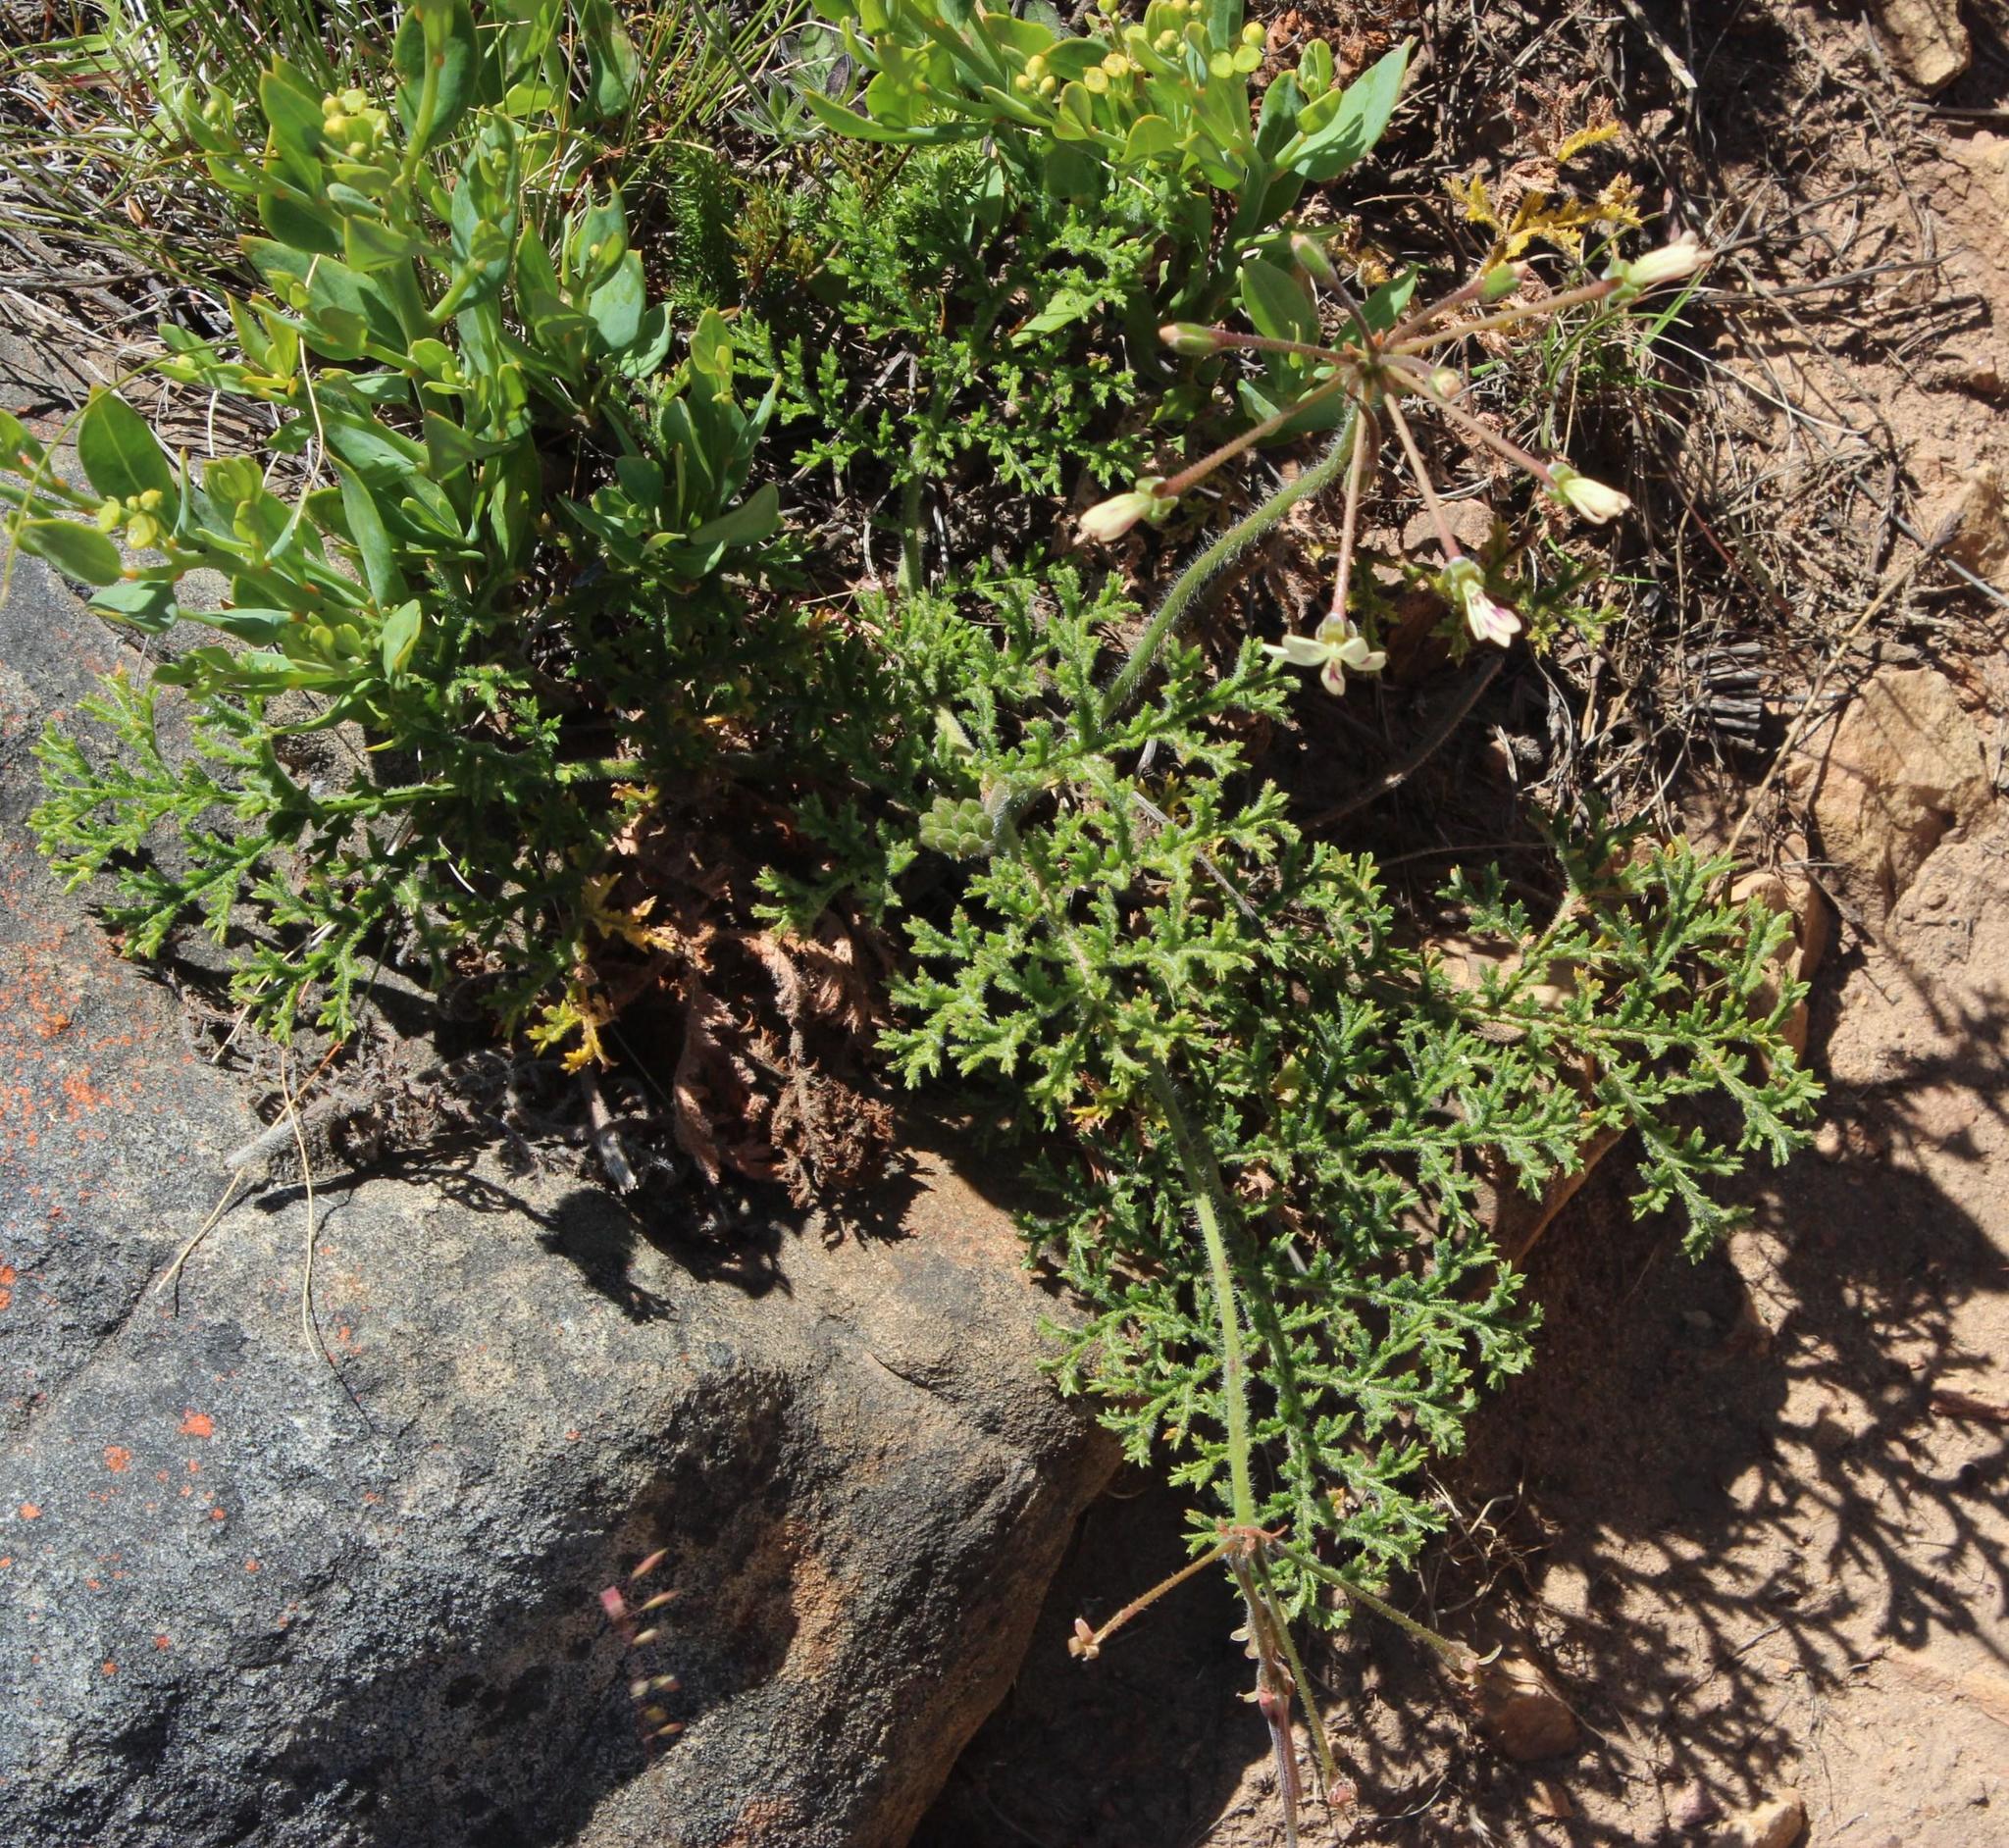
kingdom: Plantae
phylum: Tracheophyta
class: Magnoliopsida
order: Geraniales
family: Geraniaceae
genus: Pelargonium
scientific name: Pelargonium triste
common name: Night-scent pelargonium
